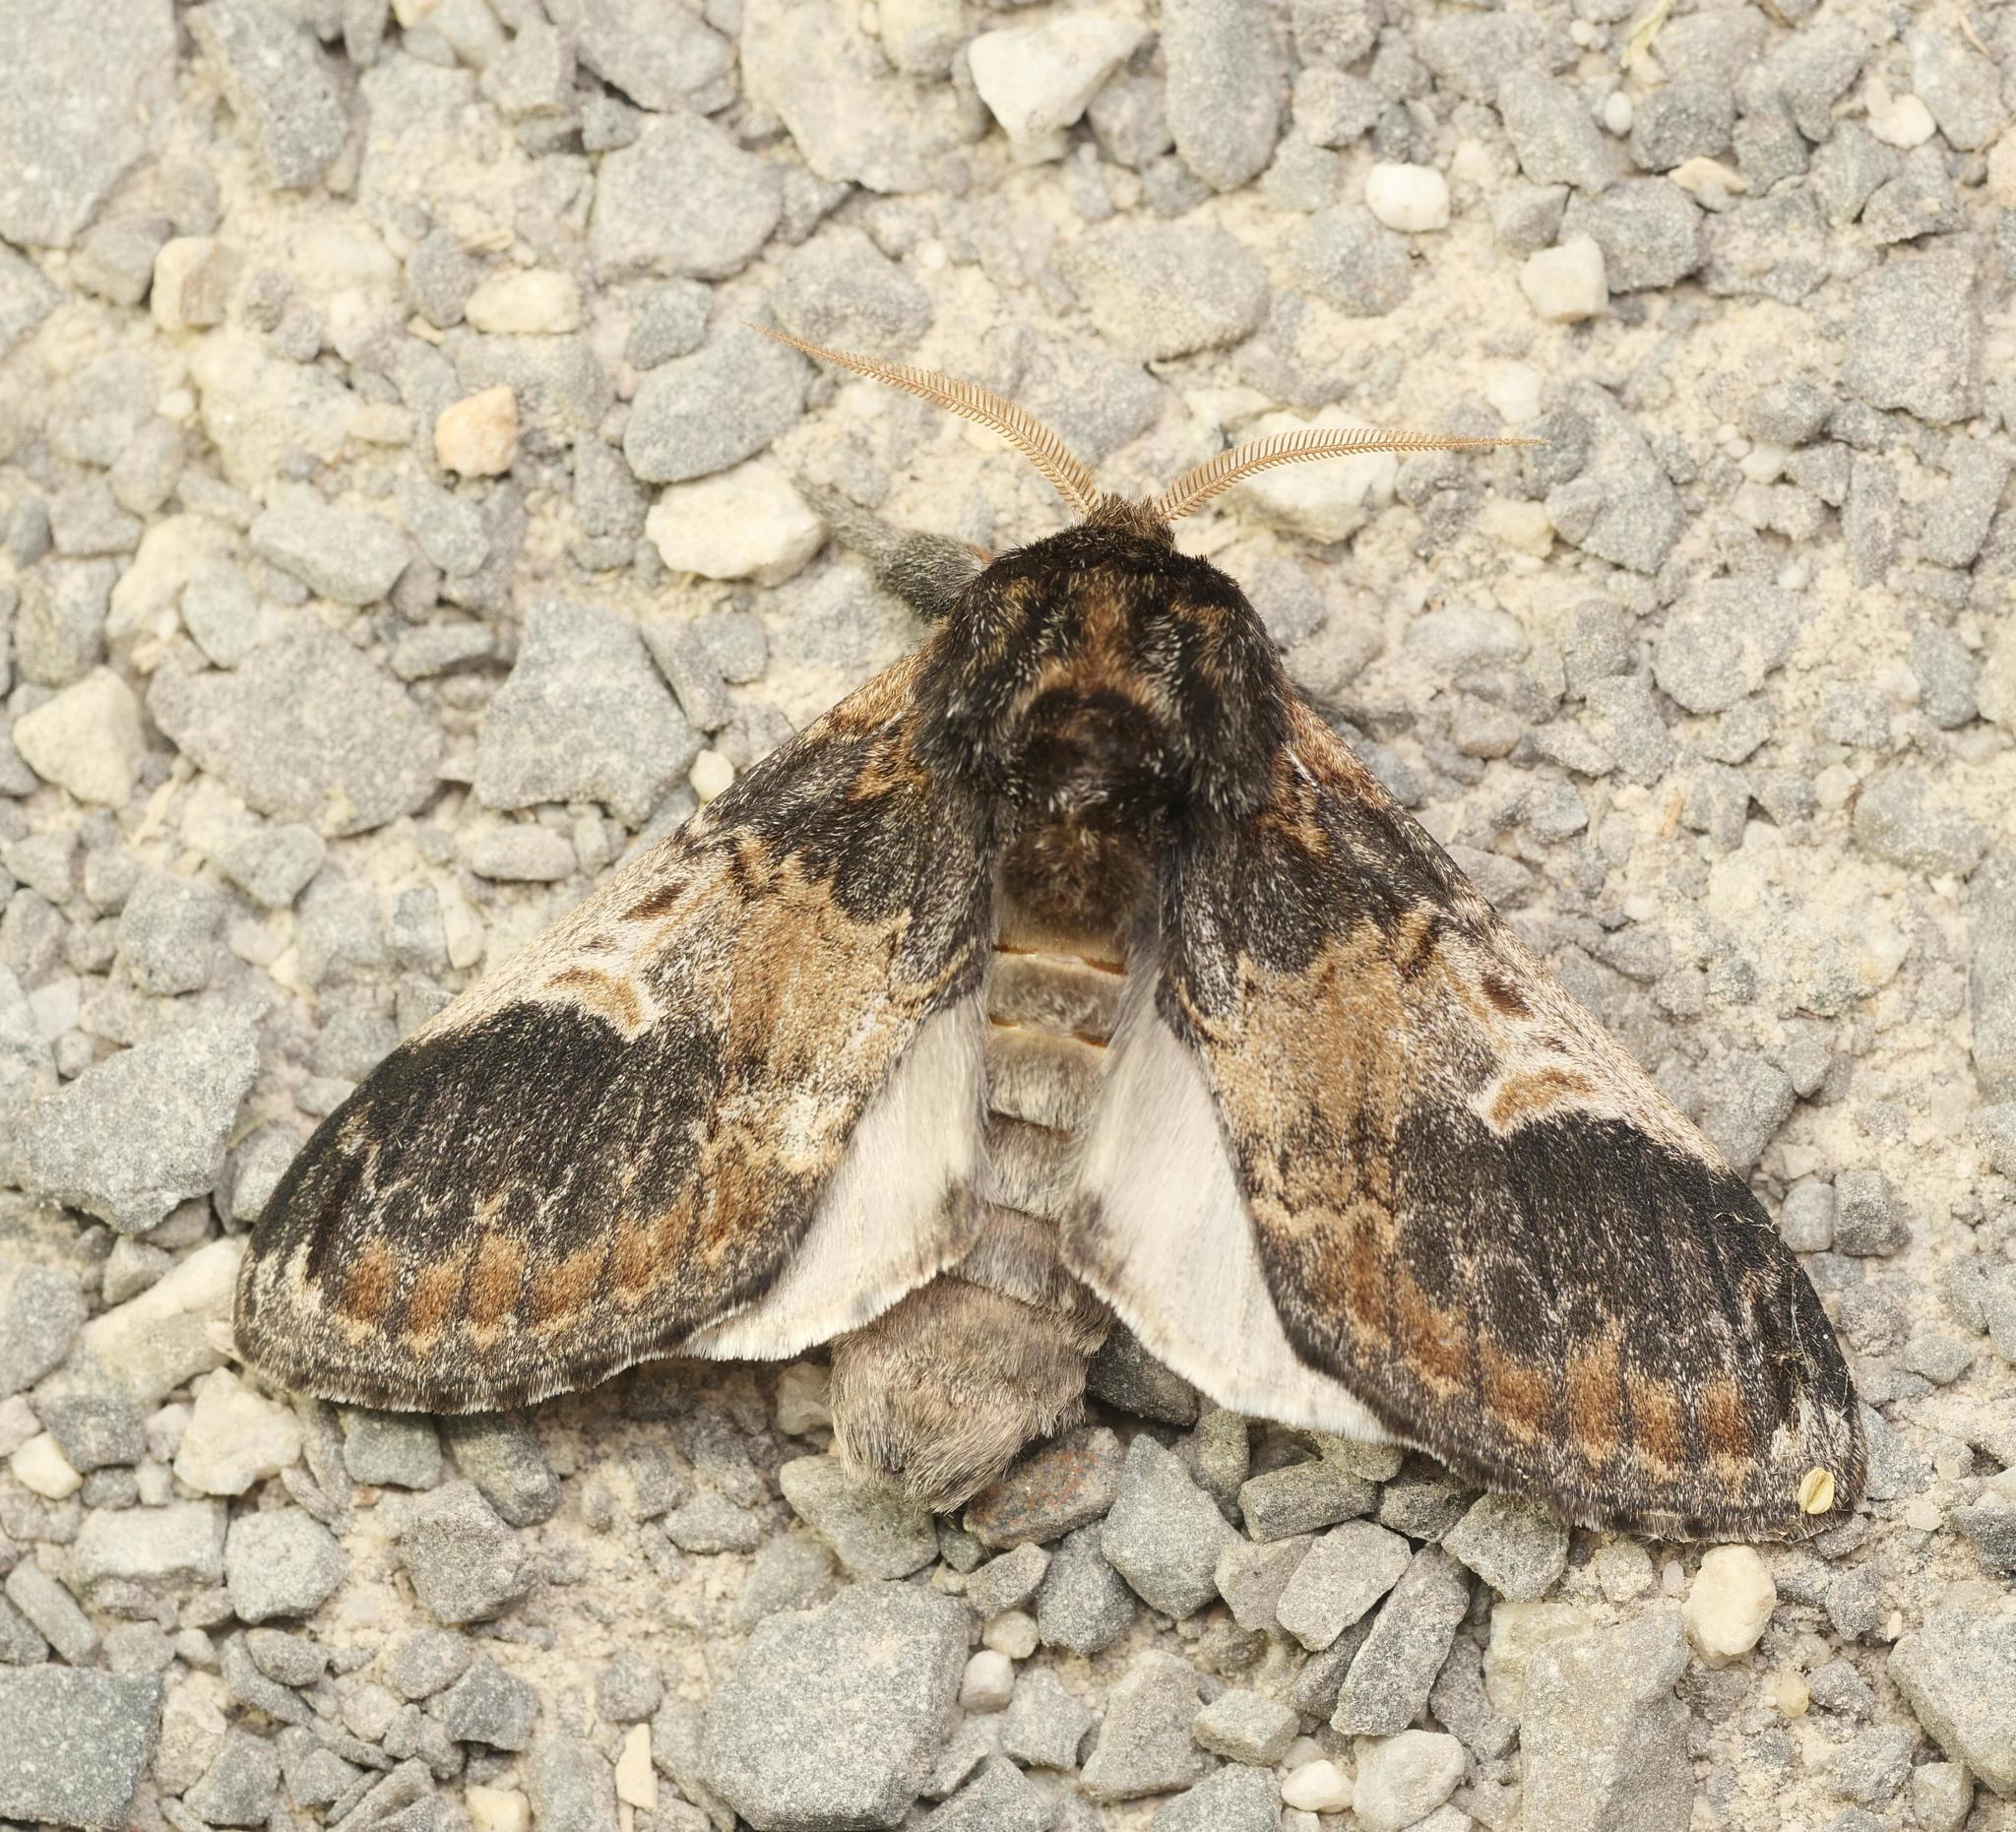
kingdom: Animalia
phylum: Arthropoda
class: Insecta
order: Lepidoptera
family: Notodontidae
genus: Notodonta
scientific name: Notodonta tritophus
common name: Three-humped prominent
